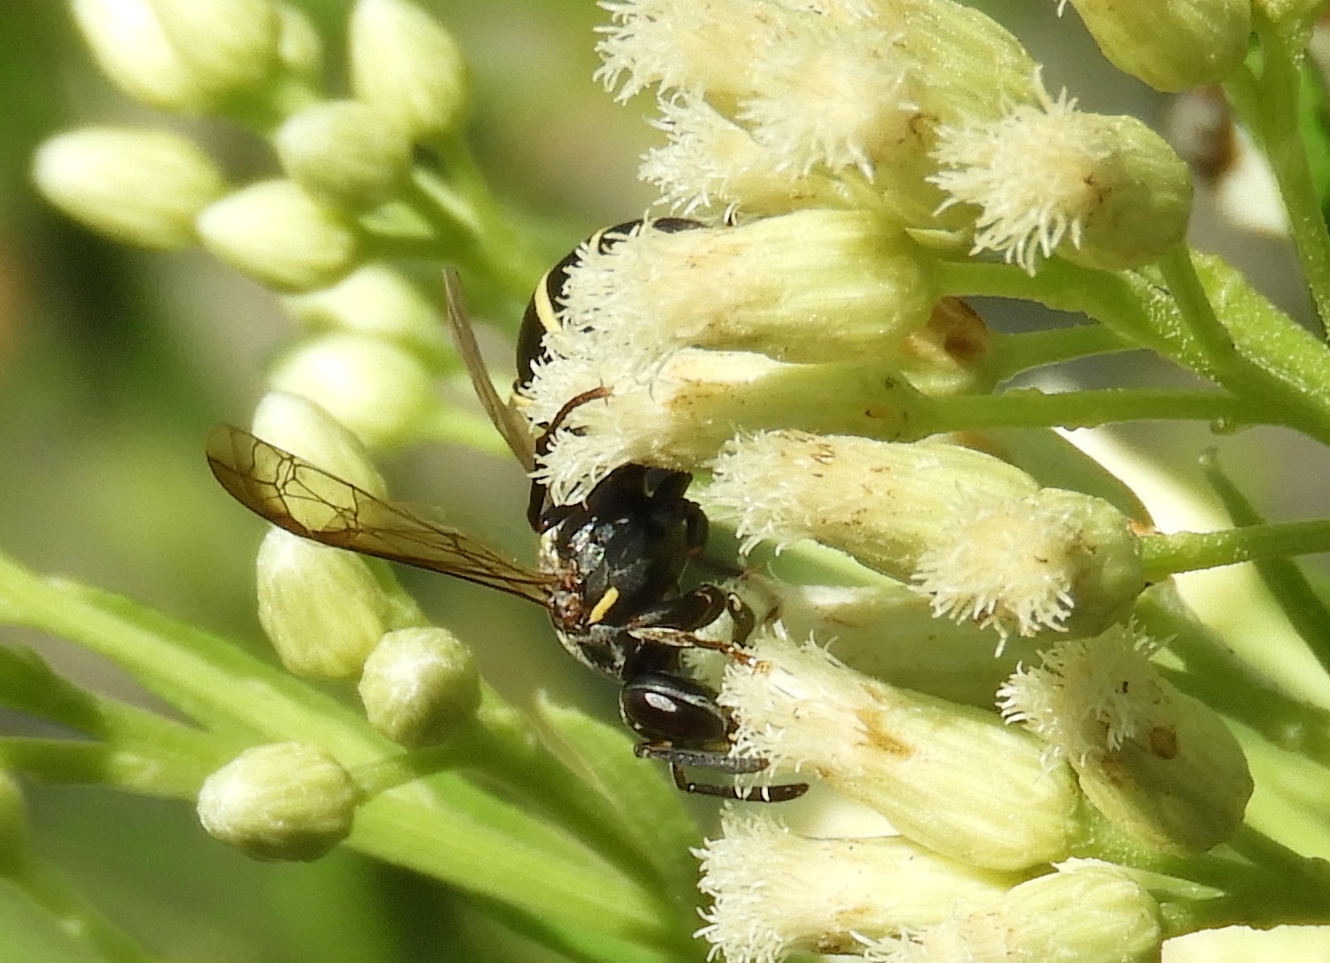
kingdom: Animalia
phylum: Arthropoda
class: Insecta
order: Hymenoptera
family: Vespidae
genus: Myrapetra
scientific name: Myrapetra
